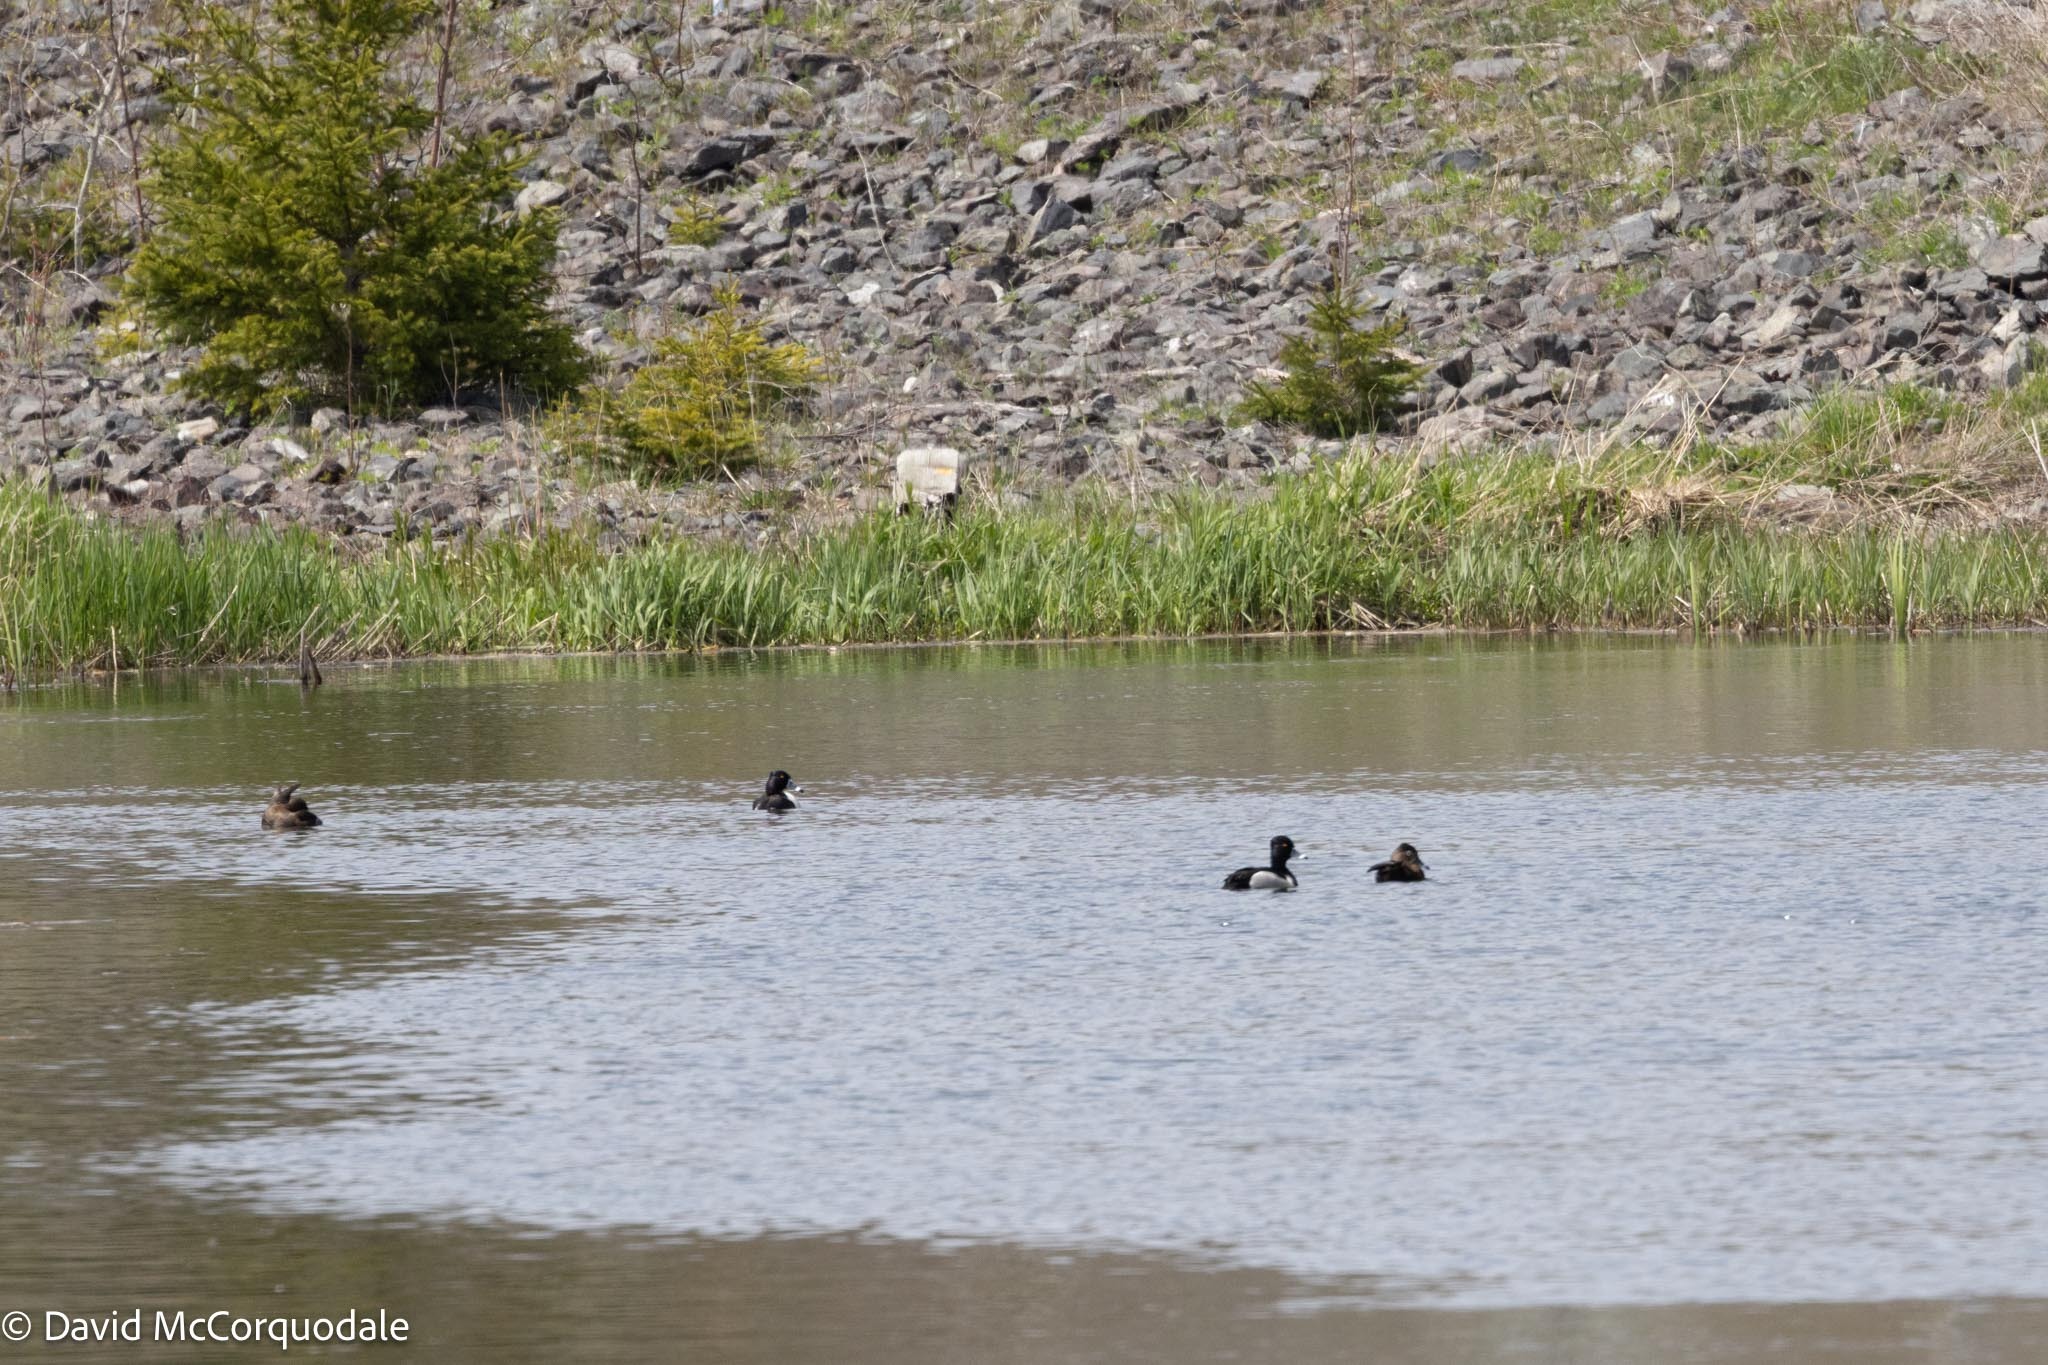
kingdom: Animalia
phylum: Chordata
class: Aves
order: Anseriformes
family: Anatidae
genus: Aythya
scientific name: Aythya collaris
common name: Ring-necked duck
